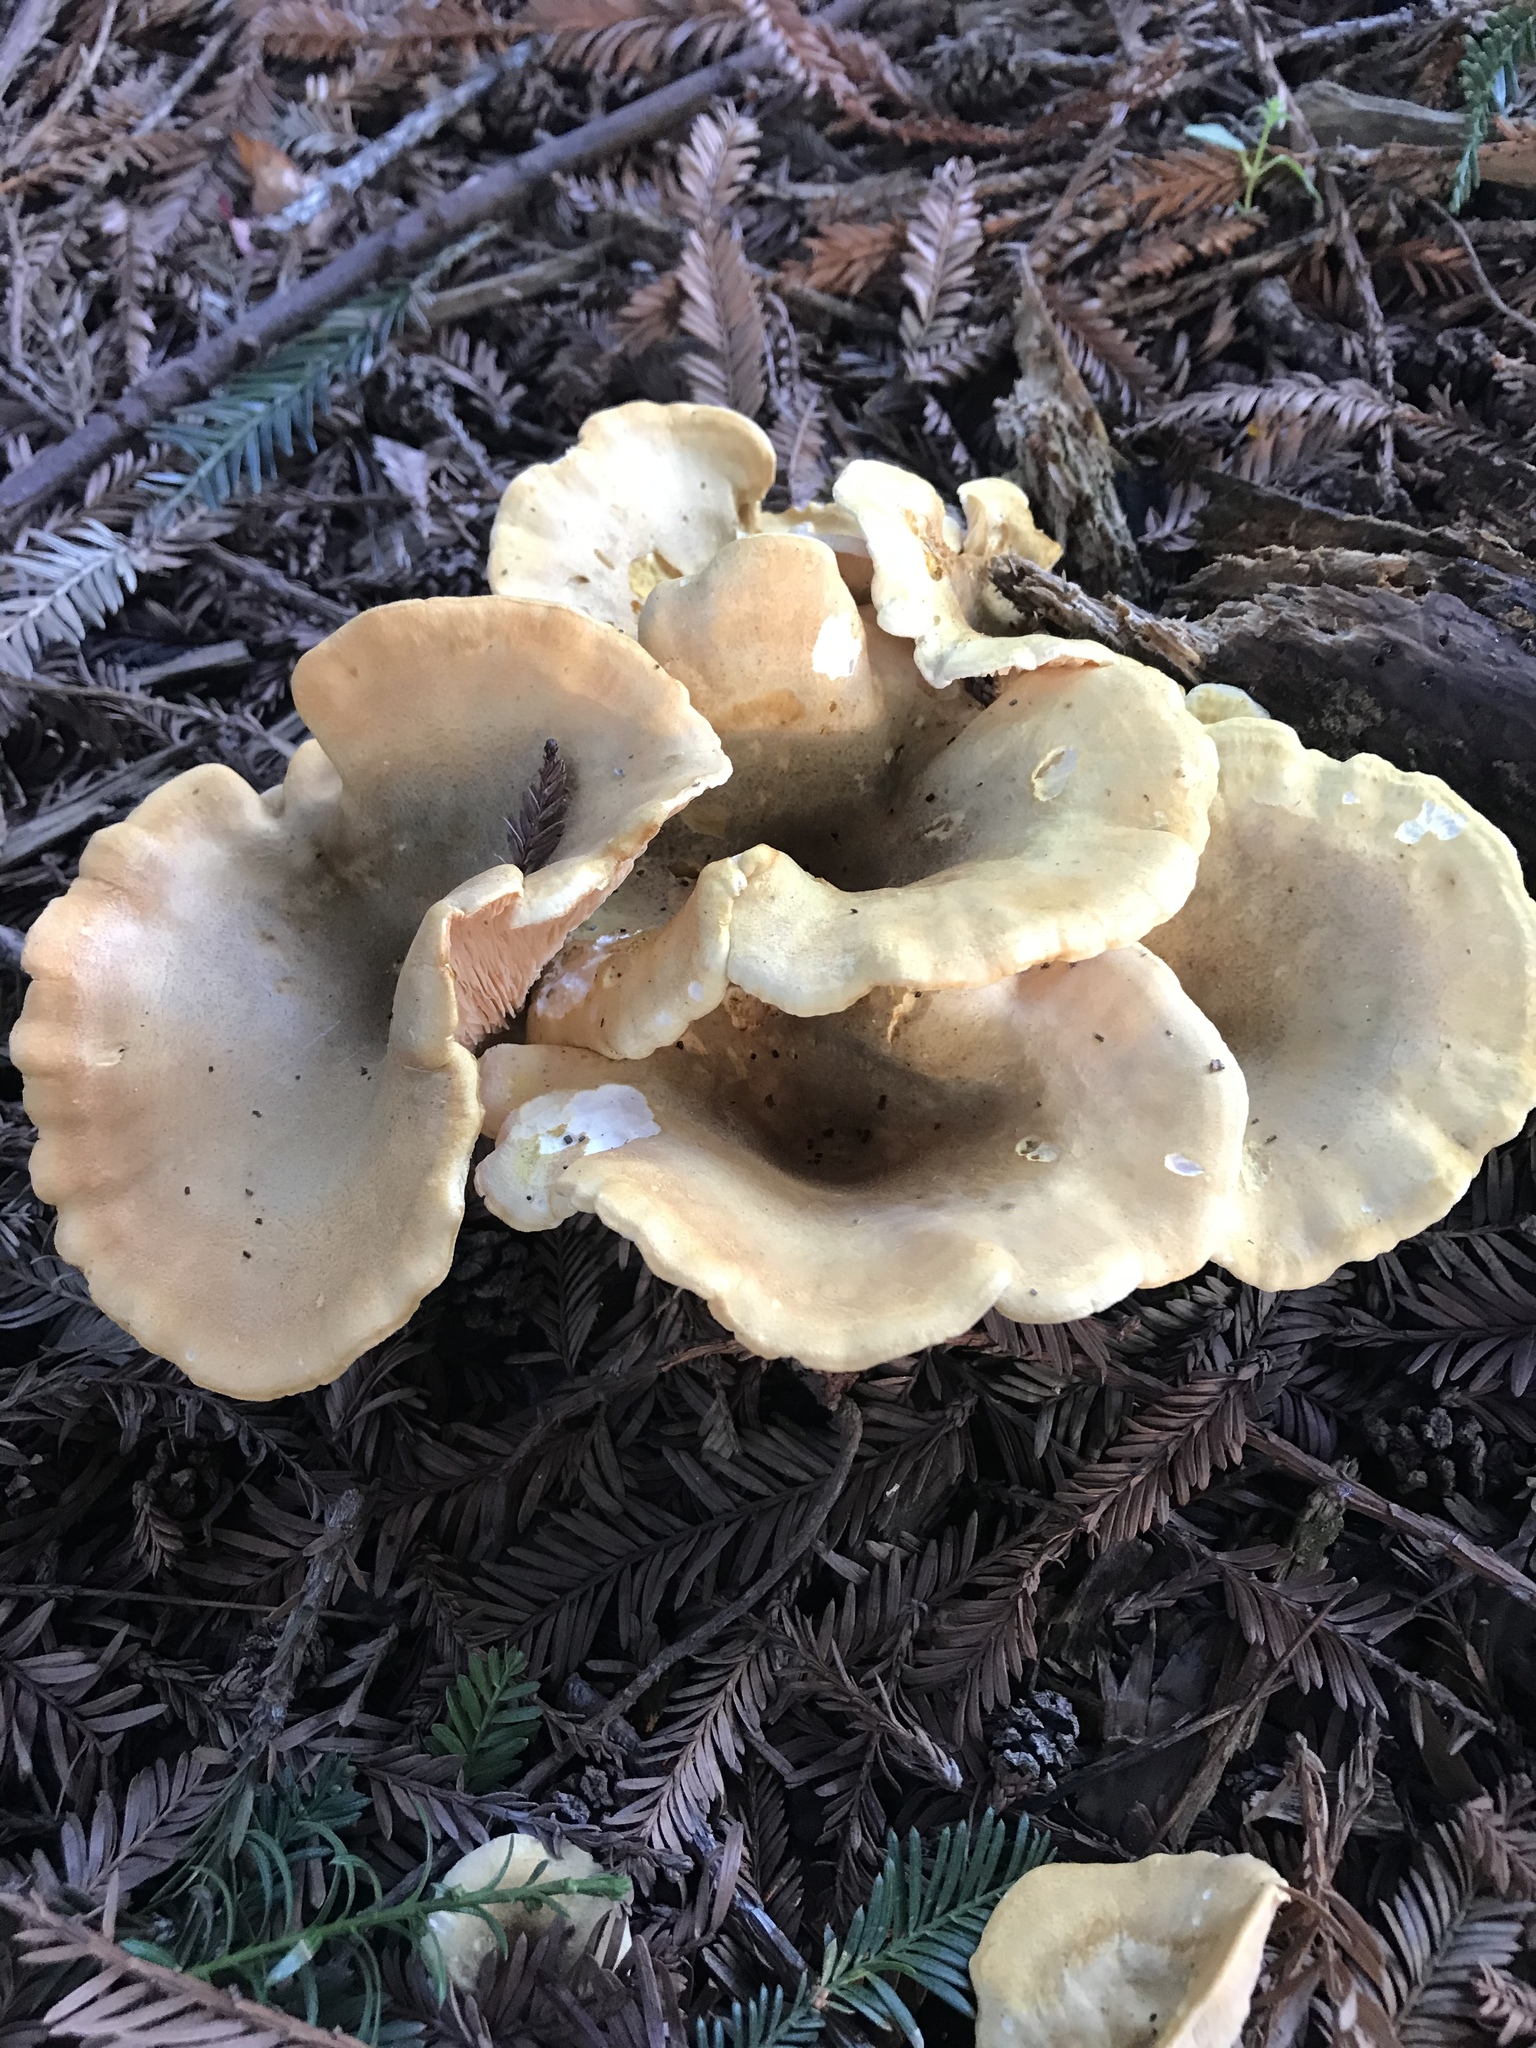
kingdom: Fungi
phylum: Basidiomycota
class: Agaricomycetes
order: Boletales
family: Hygrophoropsidaceae
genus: Hygrophoropsis
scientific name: Hygrophoropsis aurantiaca
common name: False chanterelle
